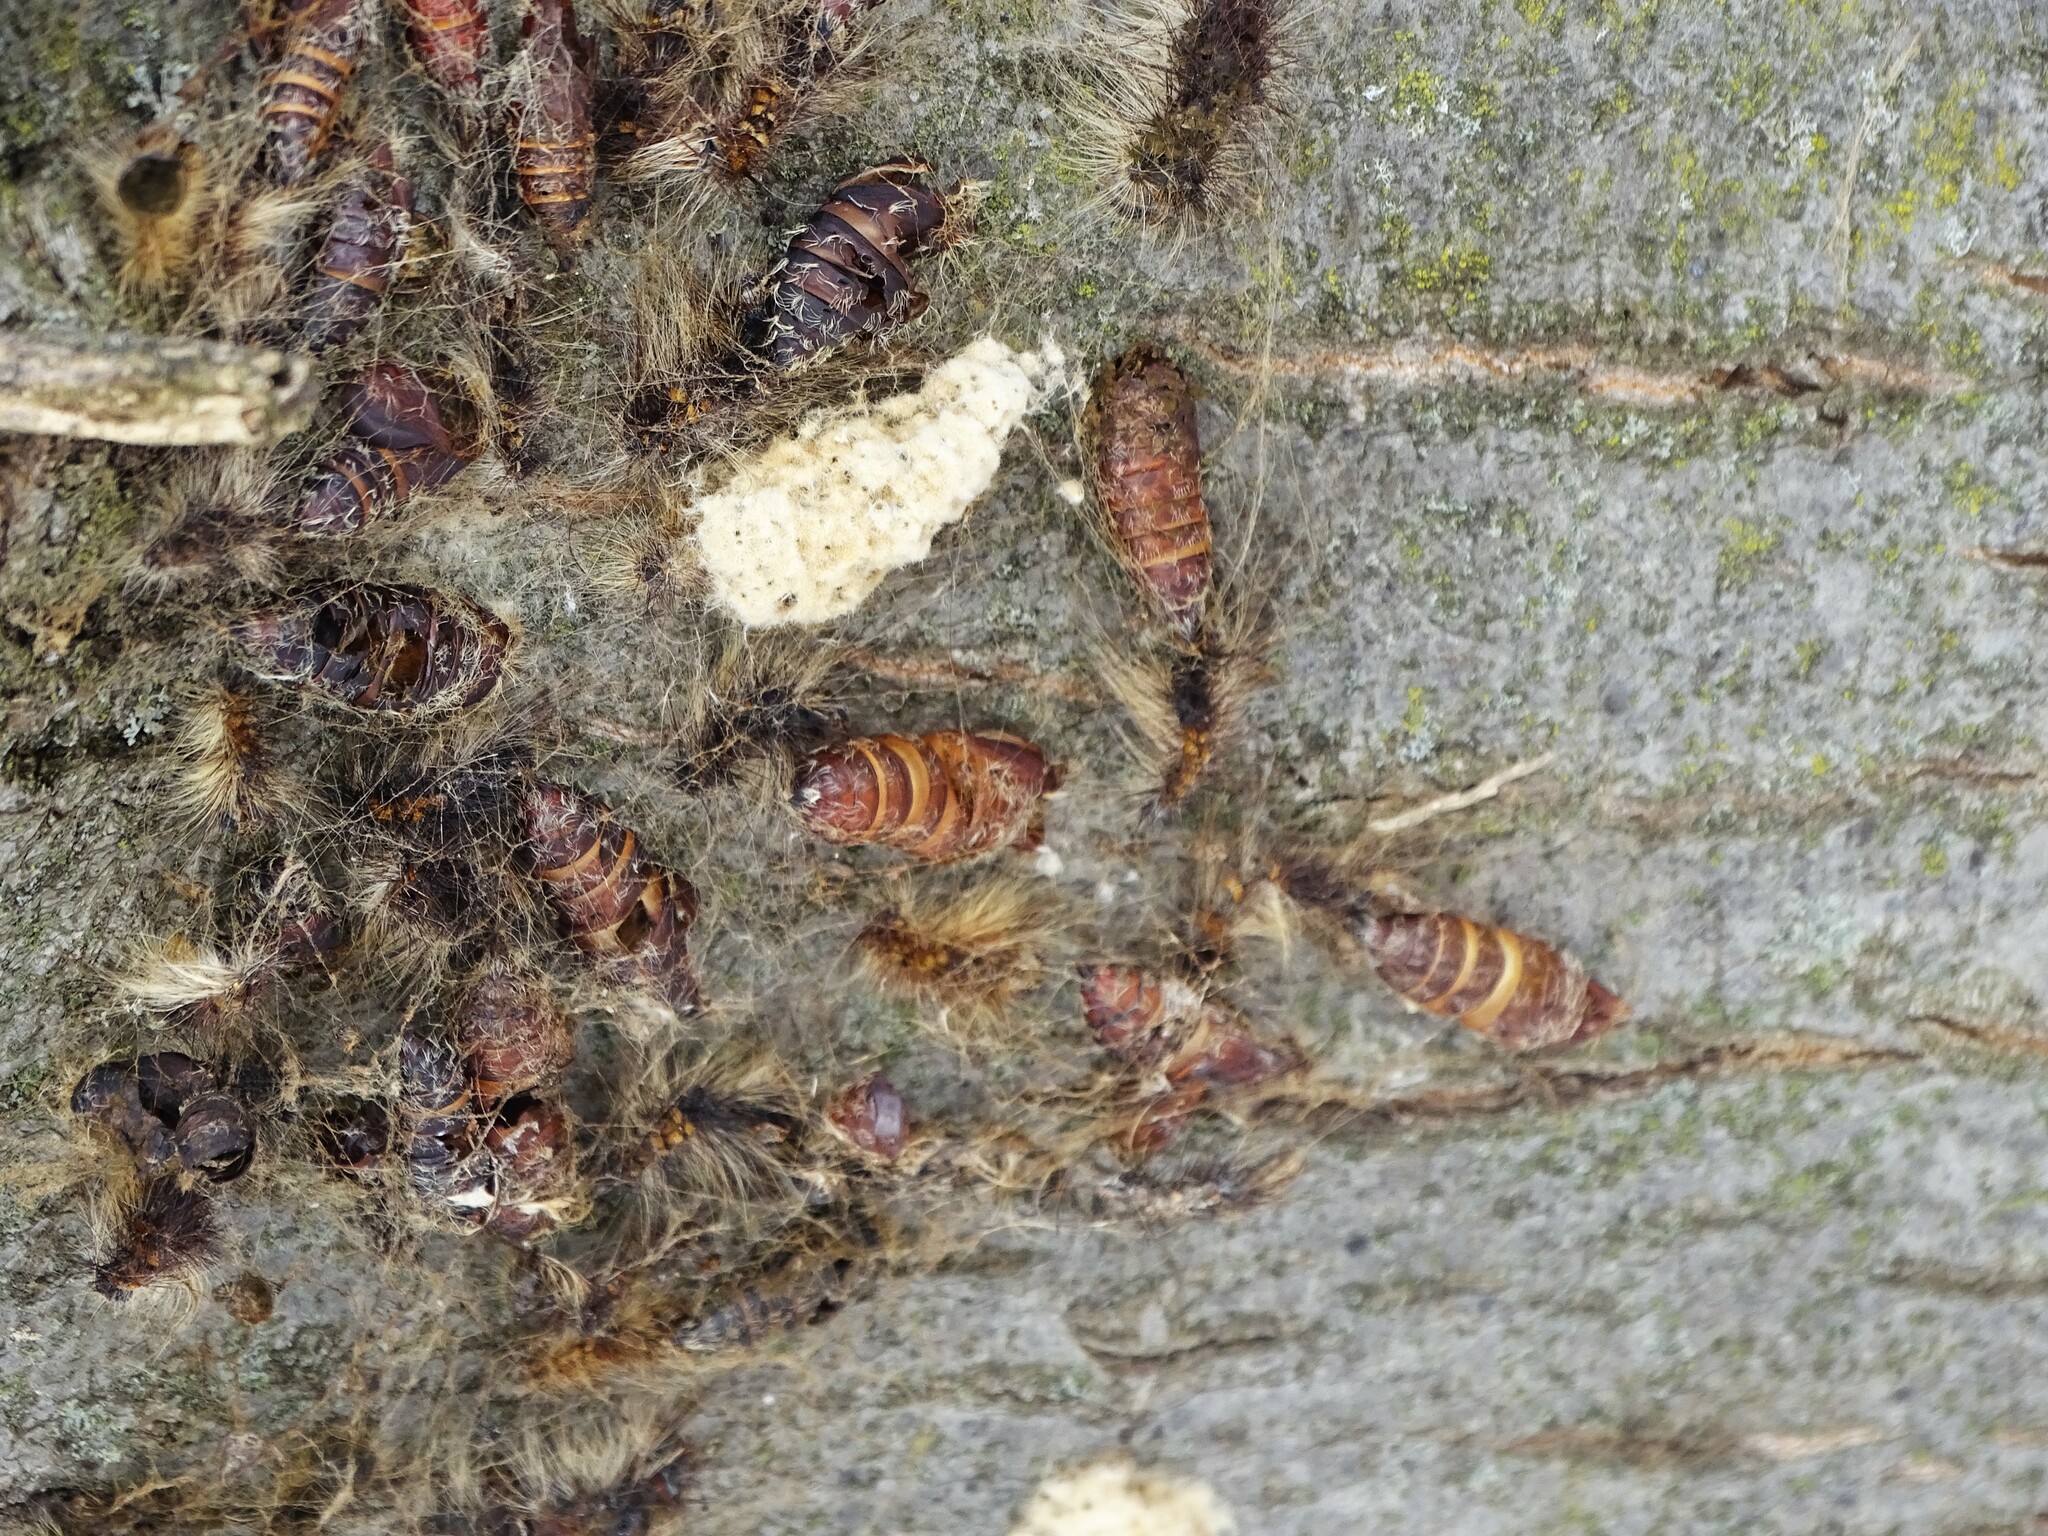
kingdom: Animalia
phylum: Arthropoda
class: Insecta
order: Lepidoptera
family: Erebidae
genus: Lymantria
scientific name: Lymantria dispar
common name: Gypsy moth
